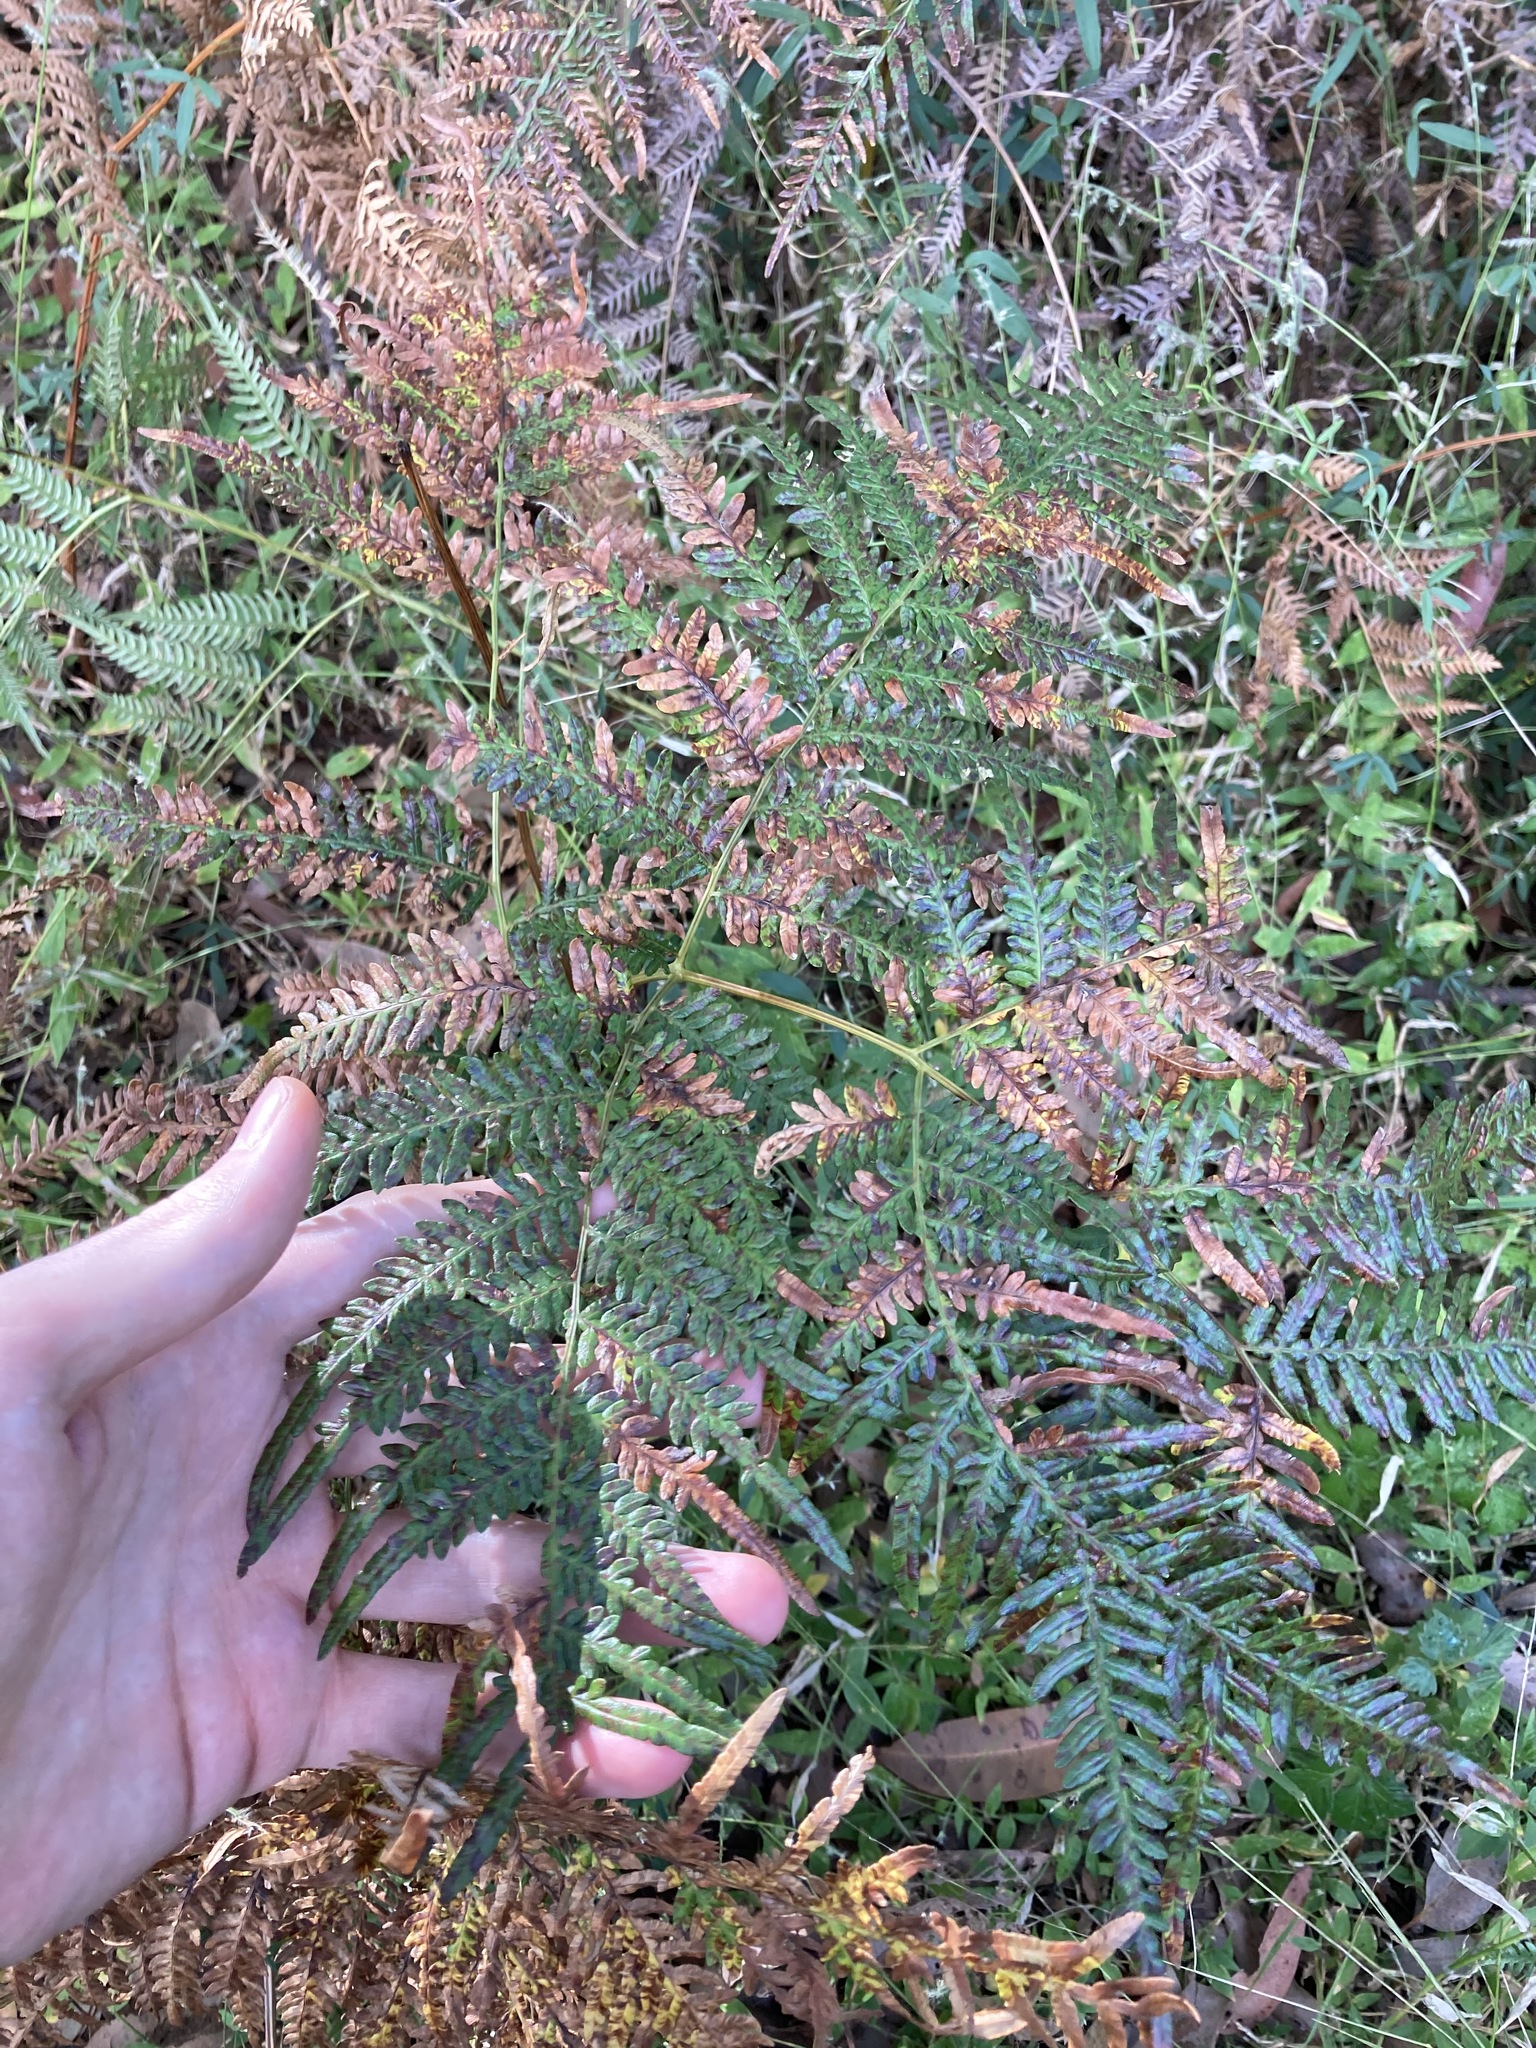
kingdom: Plantae
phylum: Tracheophyta
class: Polypodiopsida
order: Polypodiales
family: Dennstaedtiaceae
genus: Pteridium
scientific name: Pteridium esculentum
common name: Bracken fern
